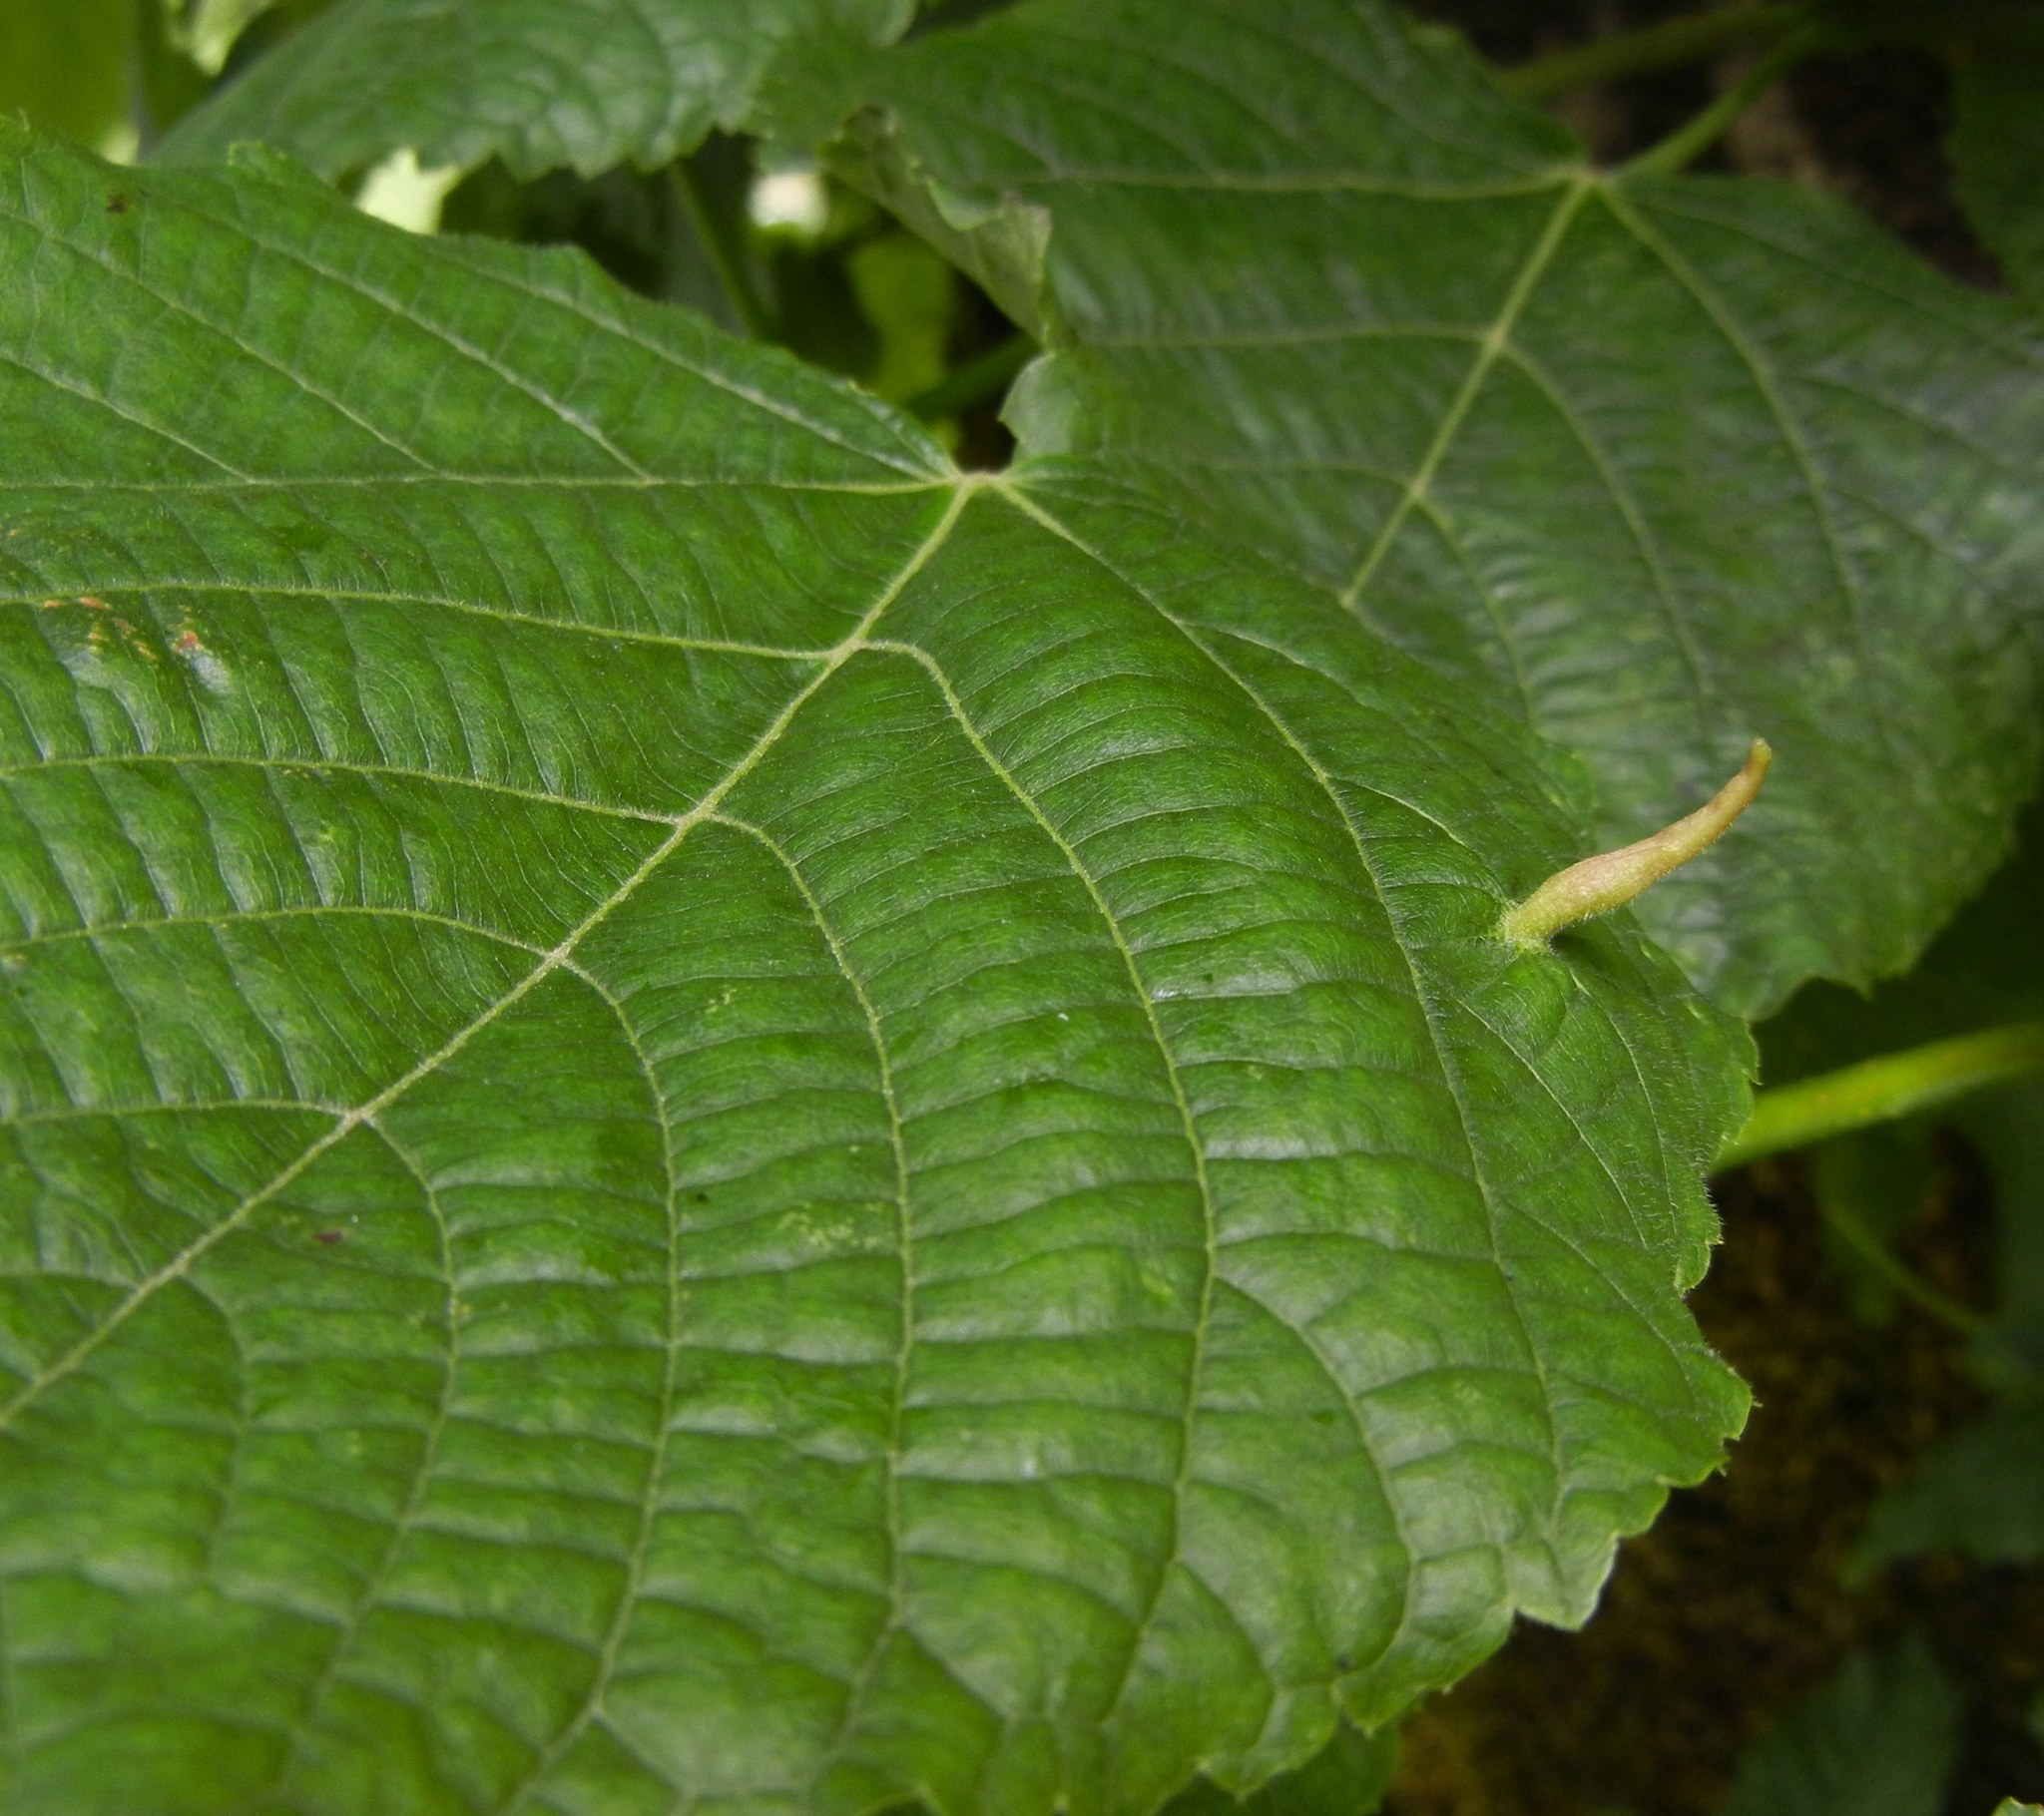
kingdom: Animalia
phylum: Arthropoda
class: Arachnida
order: Trombidiformes
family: Eriophyidae
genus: Eriophyes
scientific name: Eriophyes tiliae
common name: Red nail gall mite
